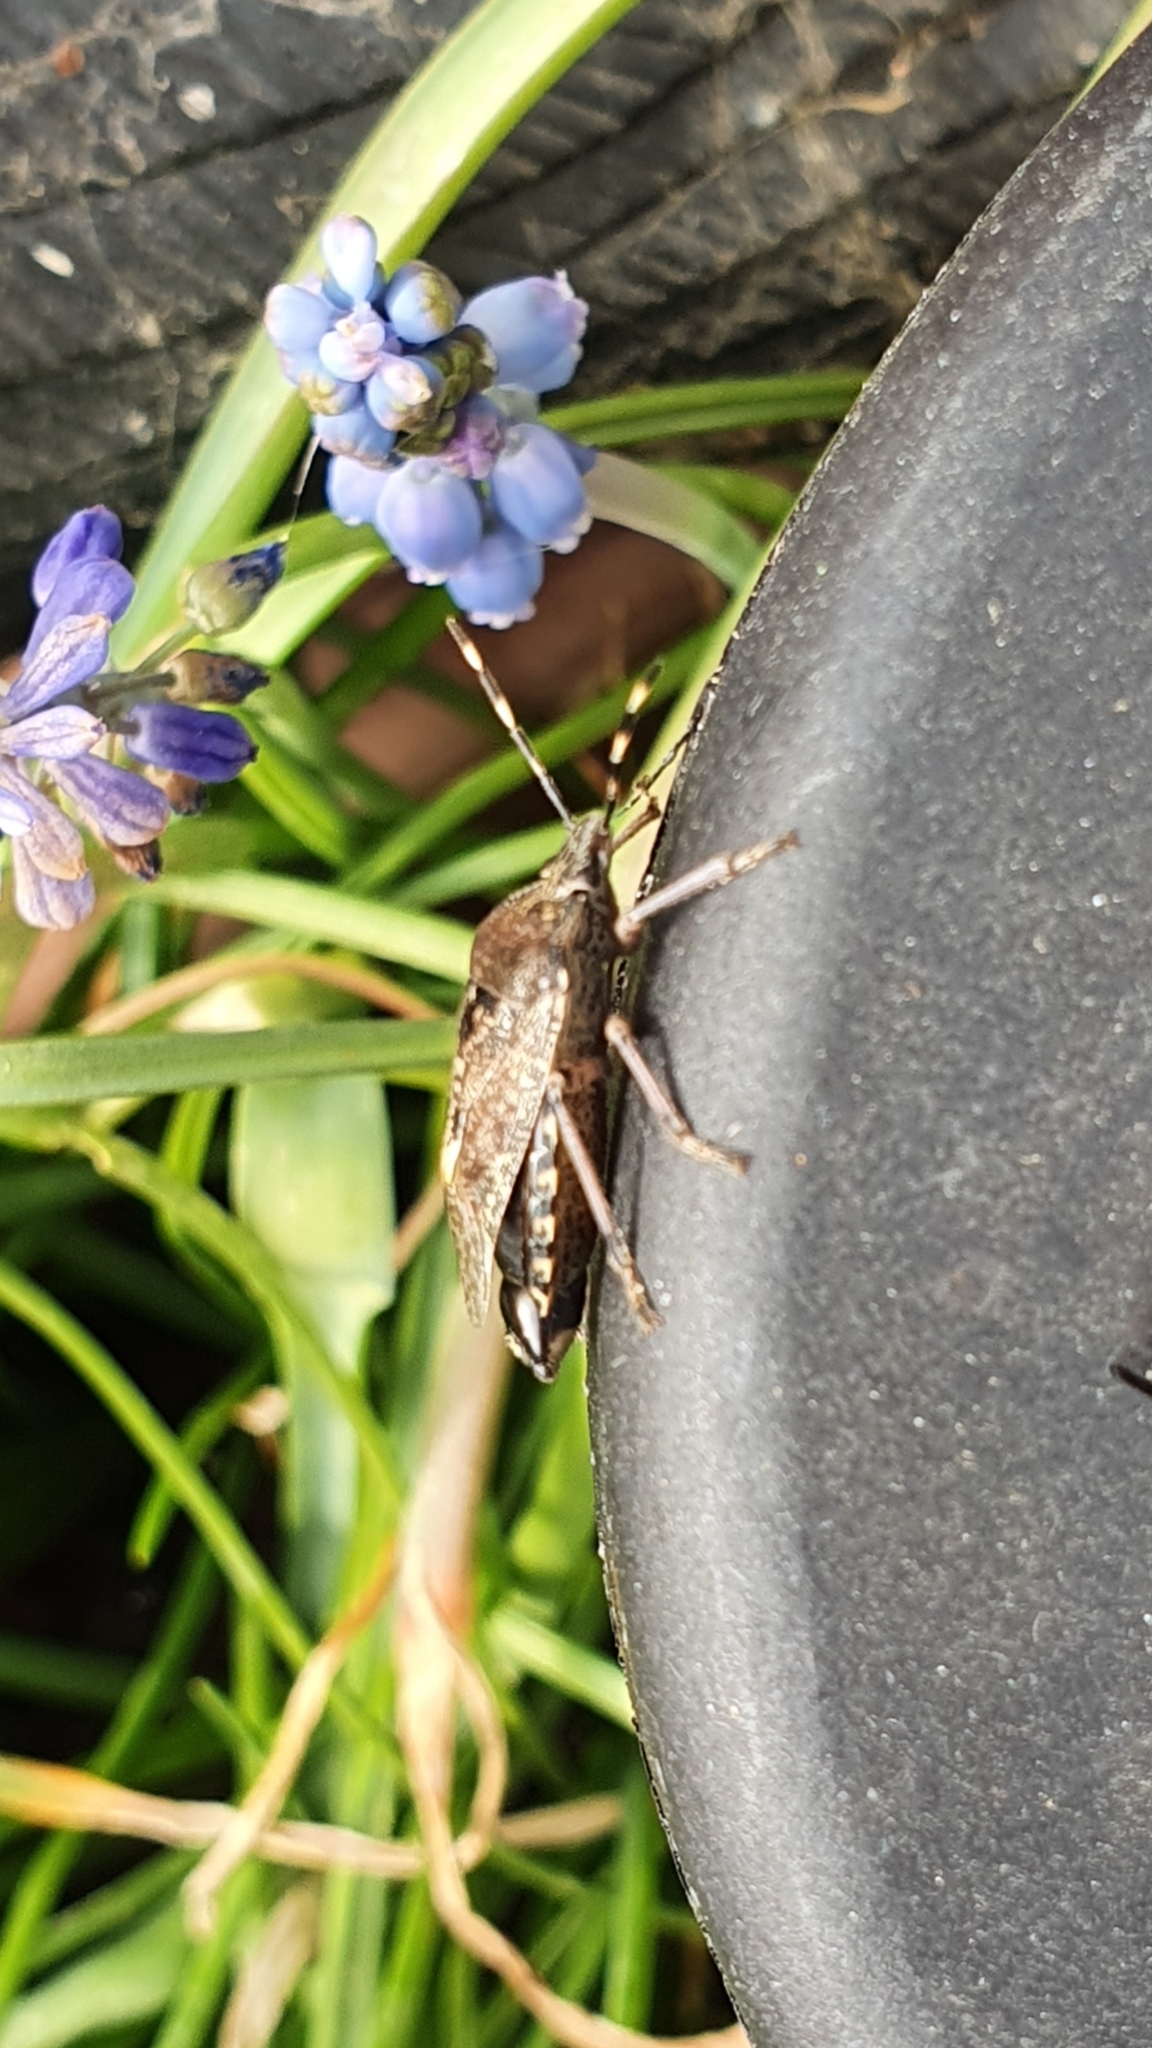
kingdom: Animalia
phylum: Arthropoda
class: Insecta
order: Hemiptera
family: Pentatomidae
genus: Rhaphigaster
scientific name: Rhaphigaster nebulosa
